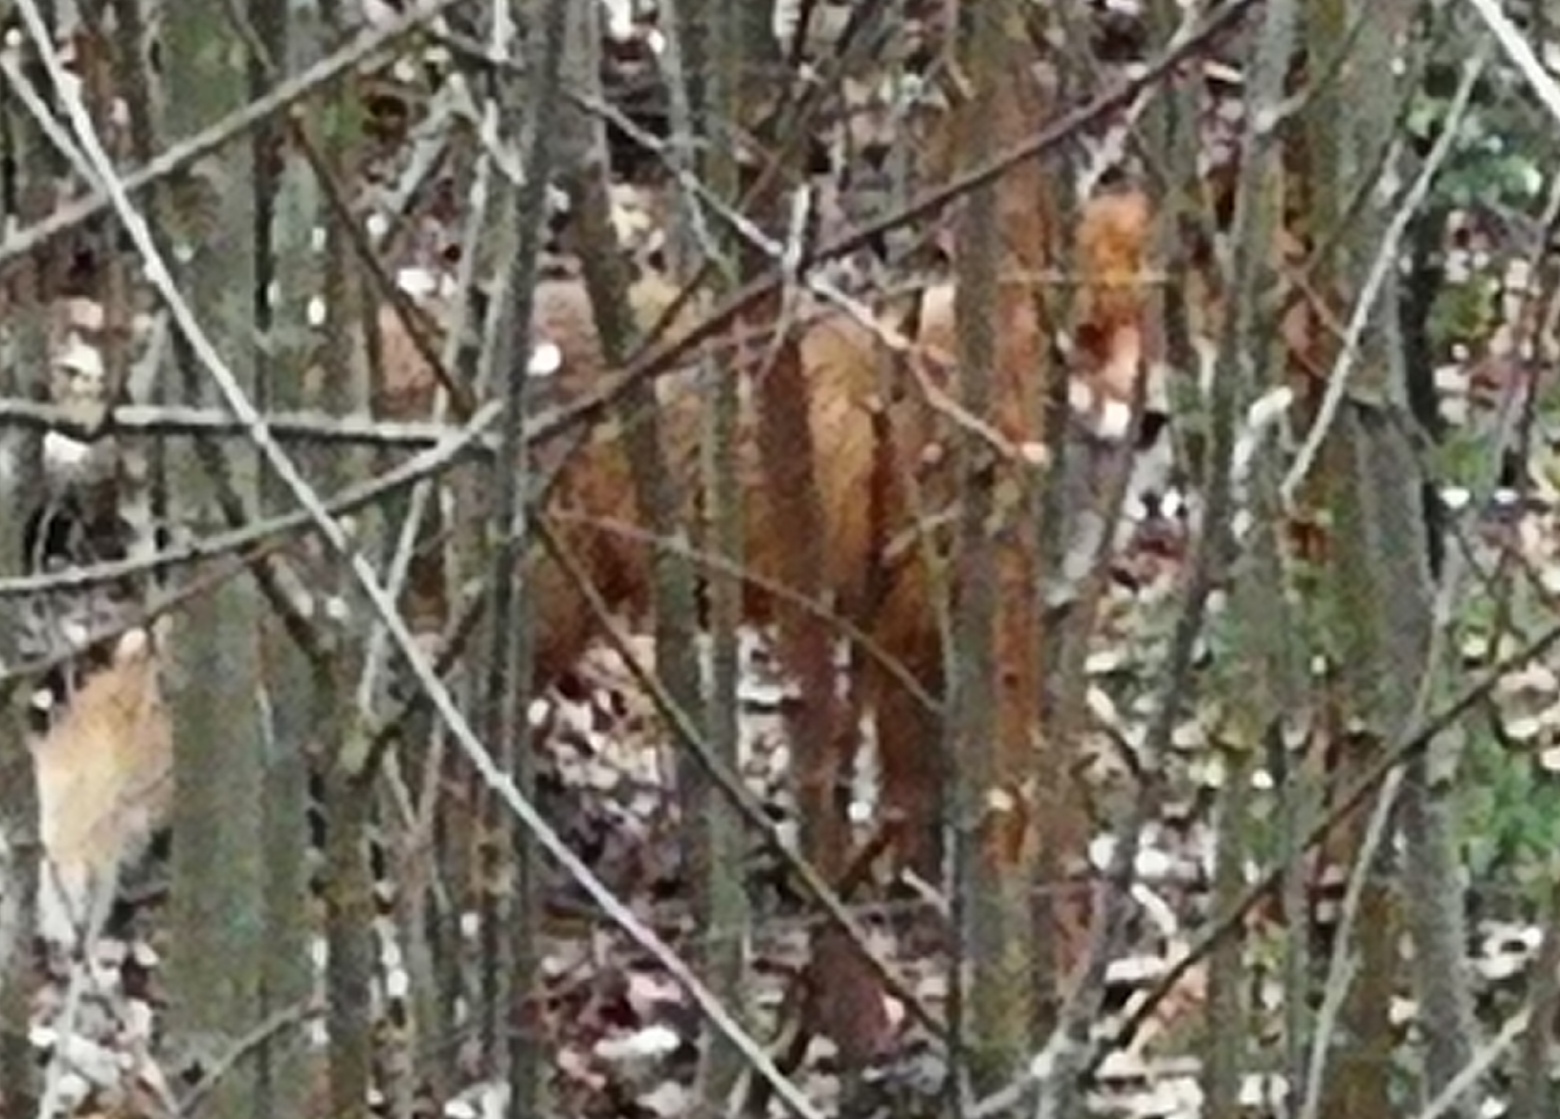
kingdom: Animalia
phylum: Chordata
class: Mammalia
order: Carnivora
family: Canidae
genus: Vulpes
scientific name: Vulpes vulpes
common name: Red fox
